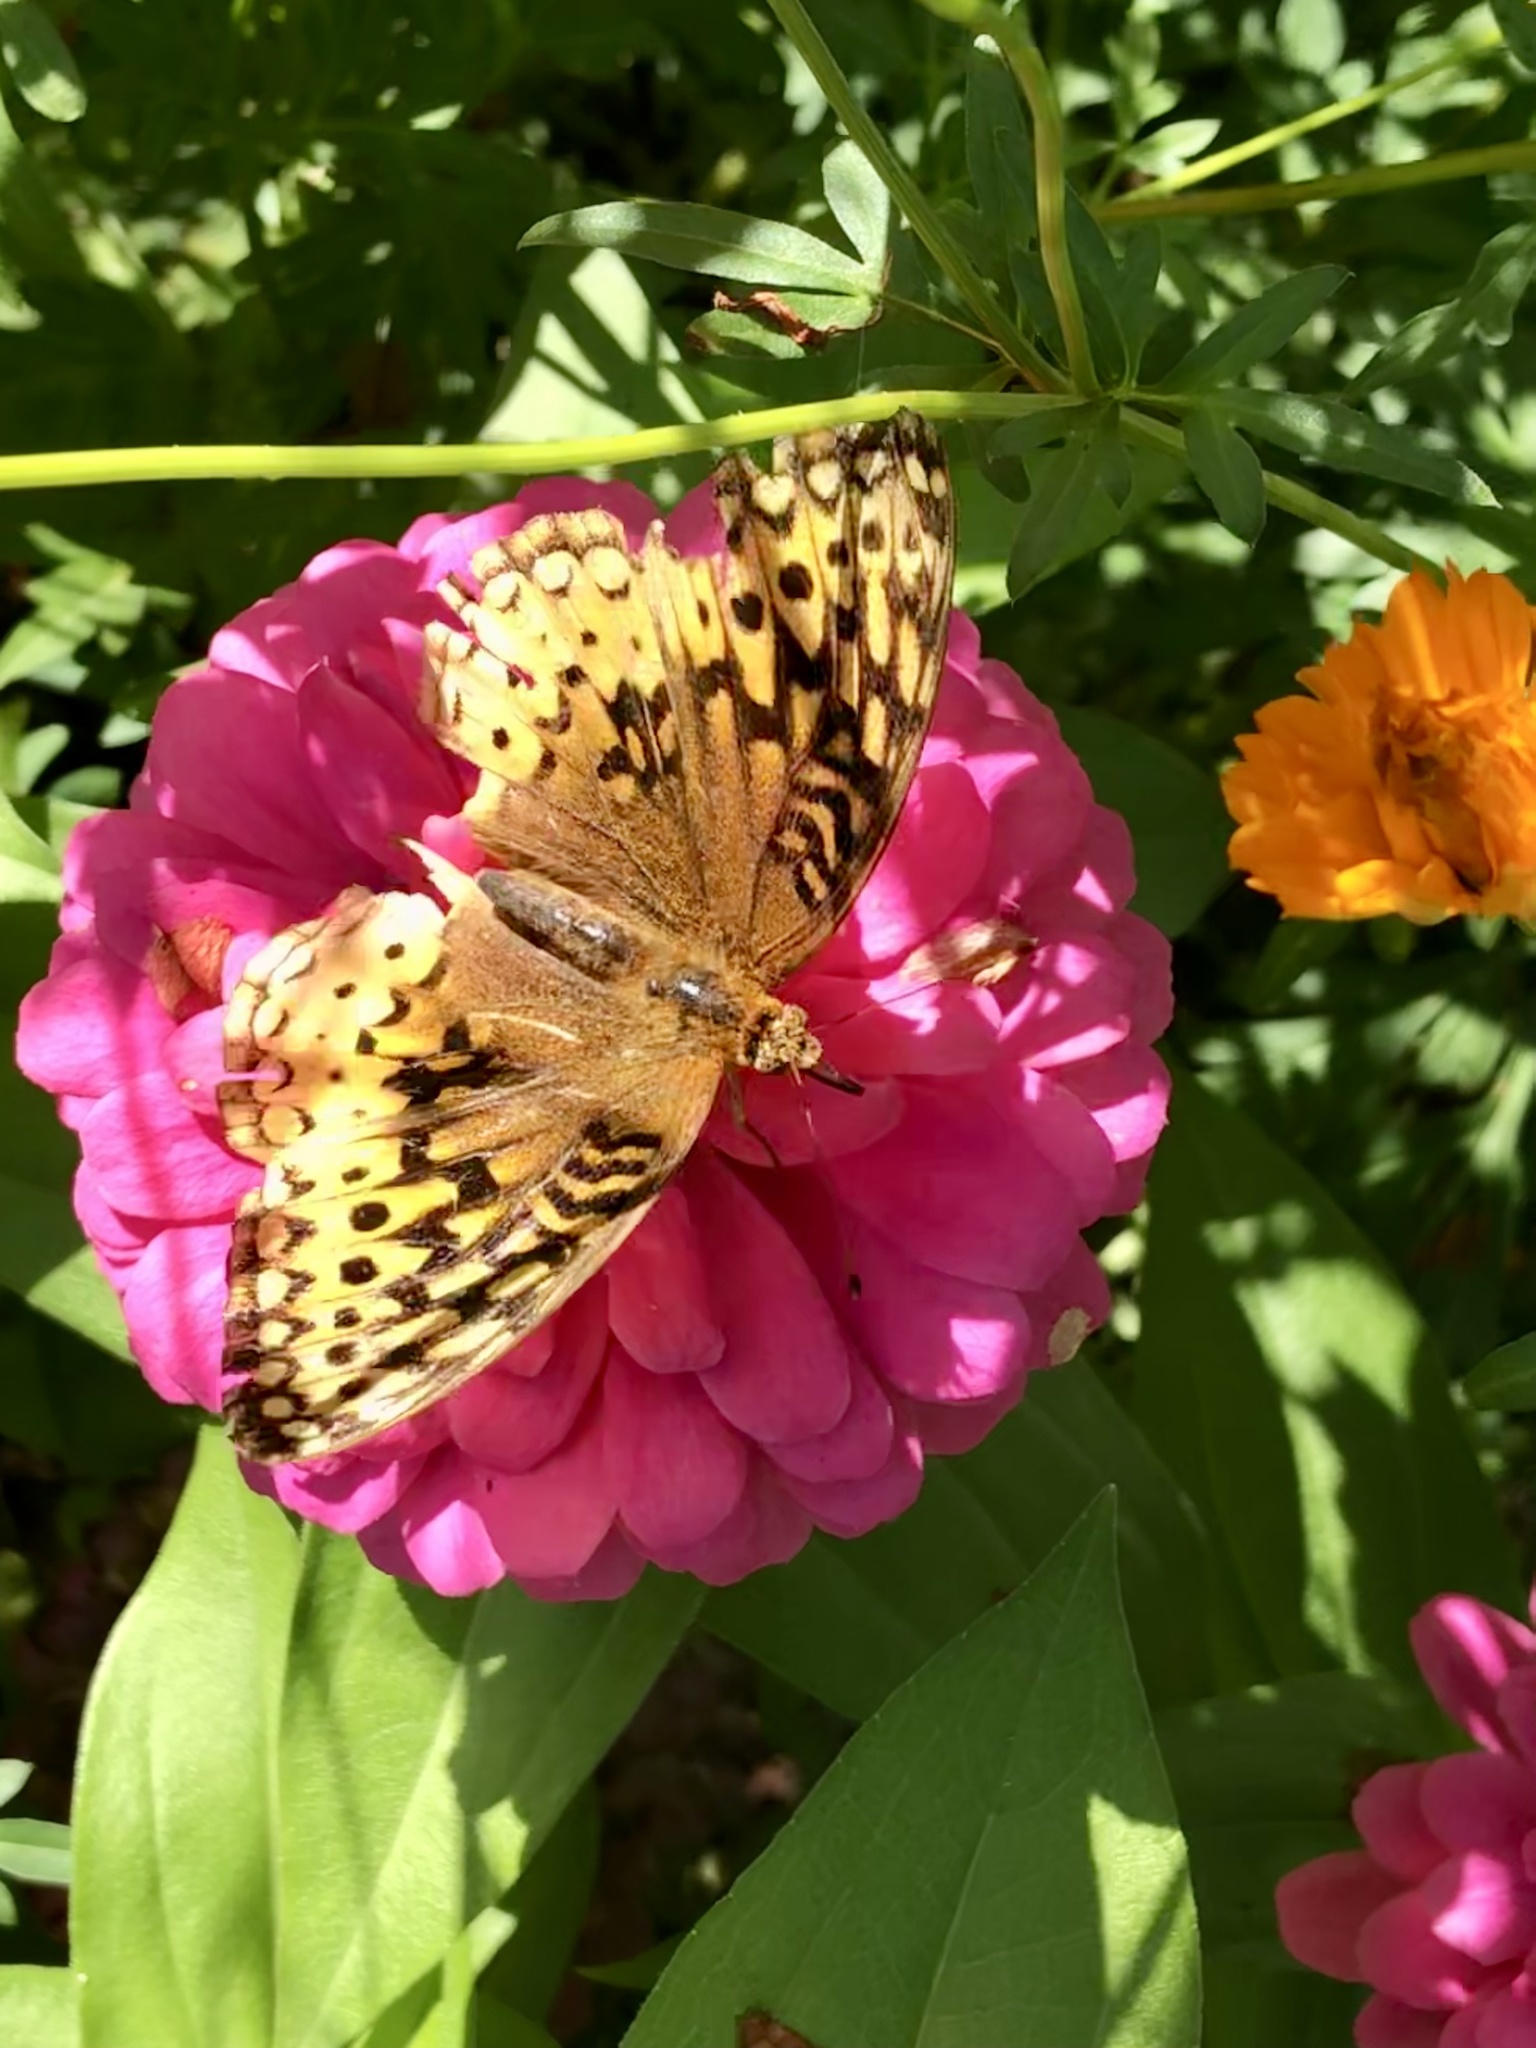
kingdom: Animalia
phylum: Arthropoda
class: Insecta
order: Lepidoptera
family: Nymphalidae
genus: Speyeria
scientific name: Speyeria cybele
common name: Great spangled fritillary
